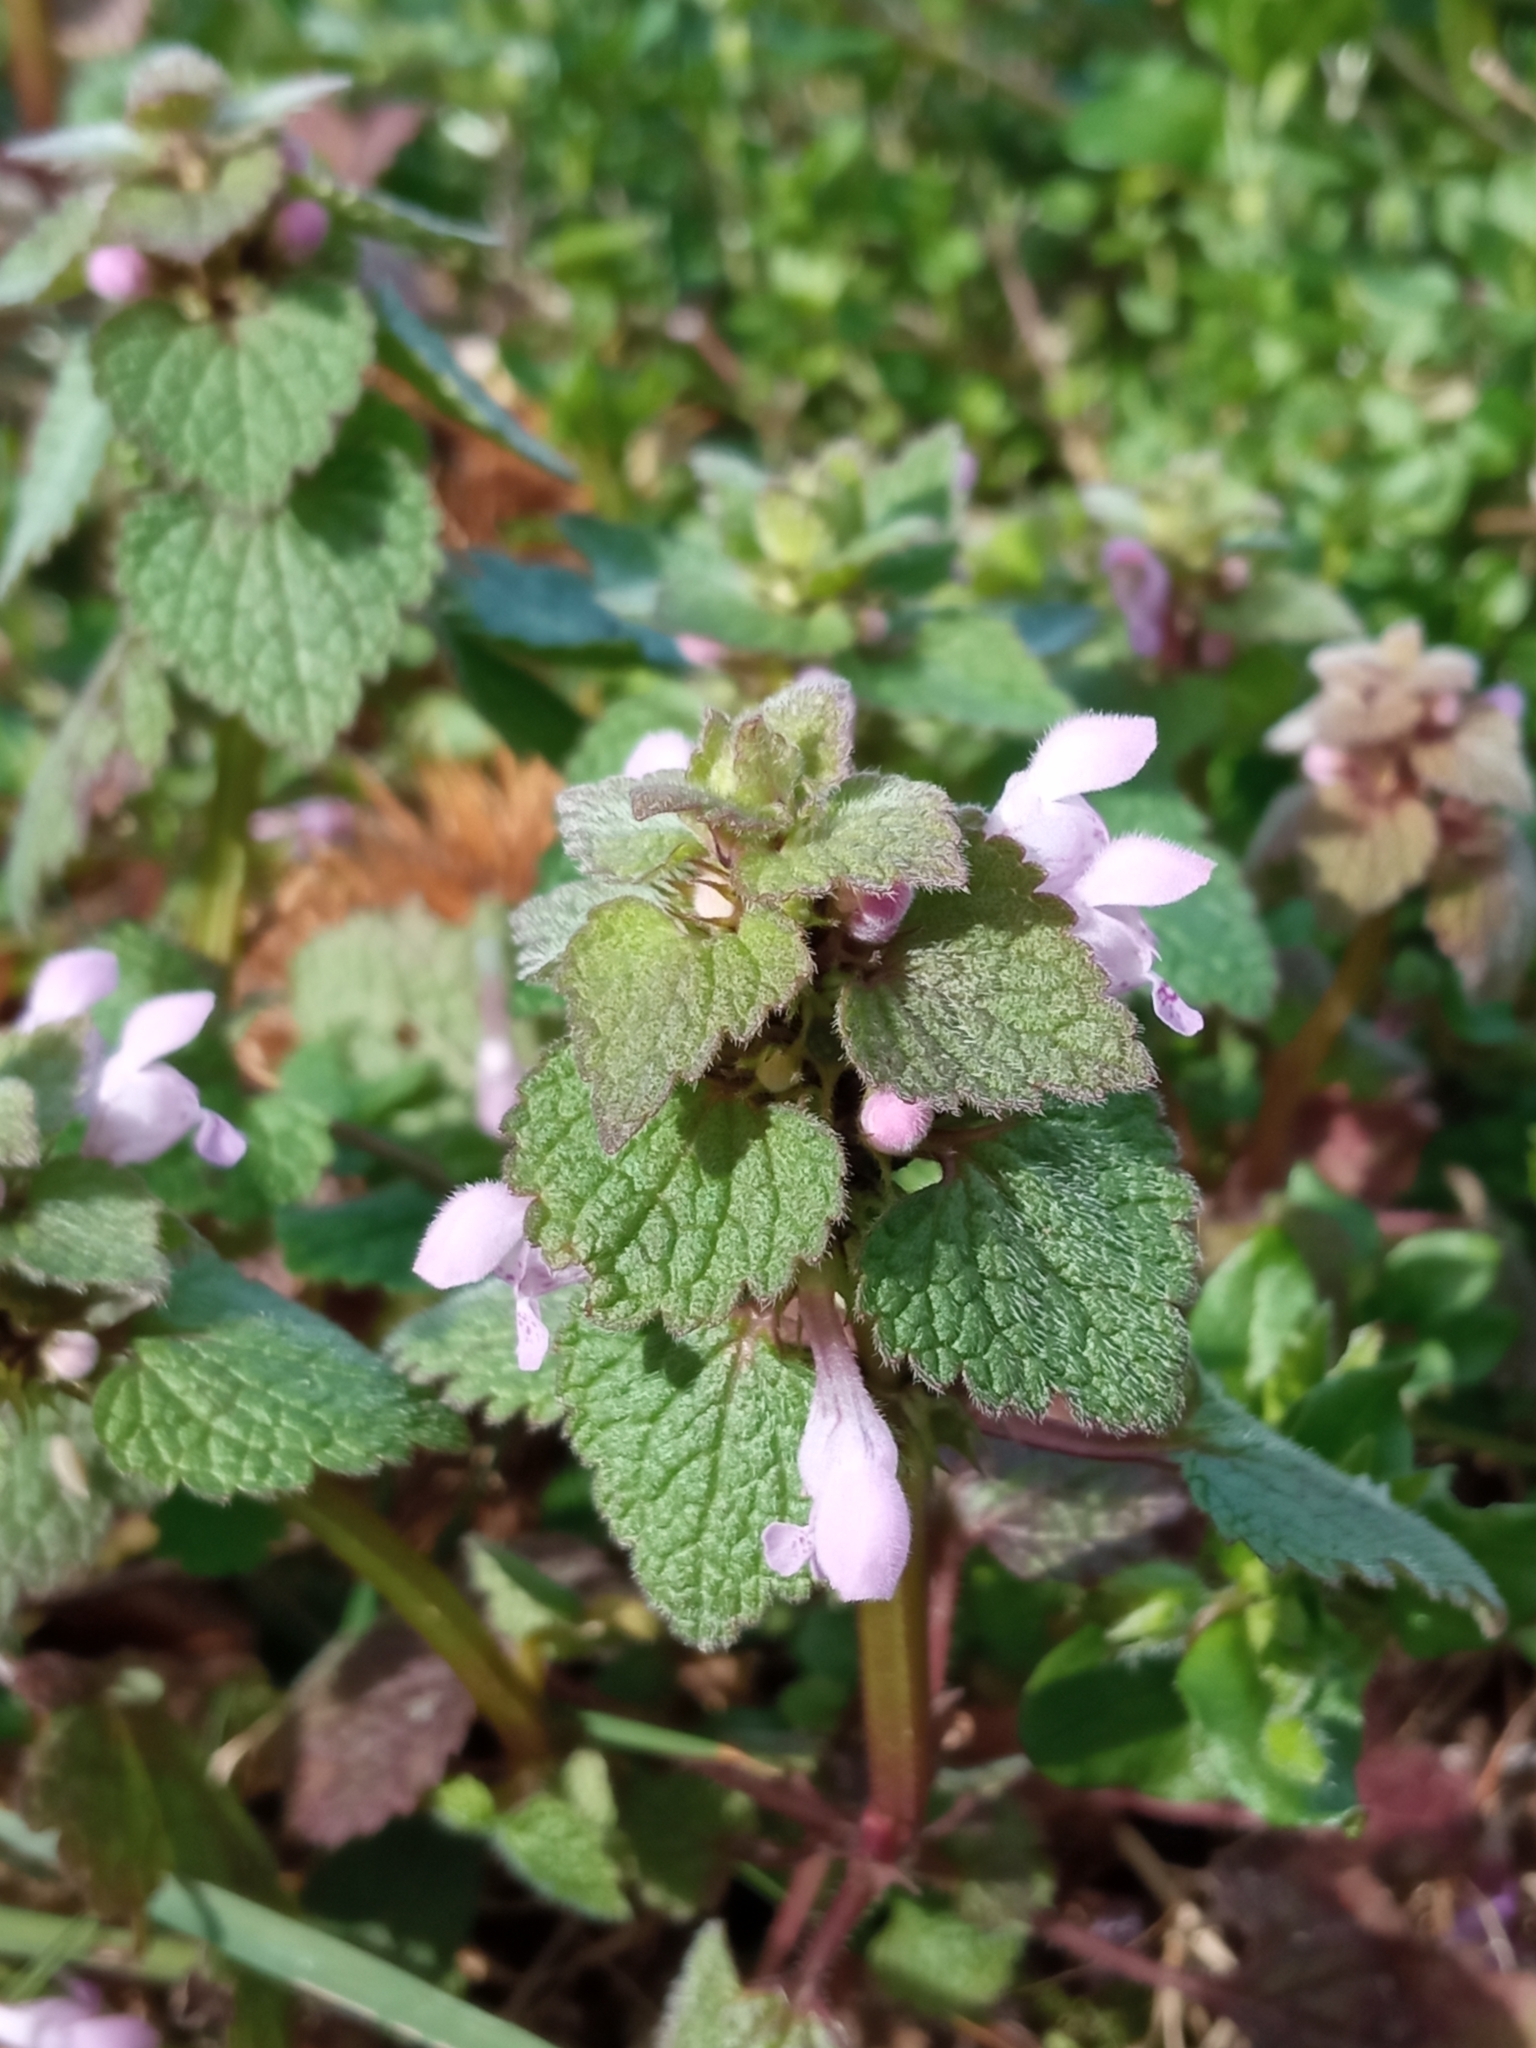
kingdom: Plantae
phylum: Tracheophyta
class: Magnoliopsida
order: Lamiales
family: Lamiaceae
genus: Lamium
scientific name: Lamium purpureum
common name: Red dead-nettle
